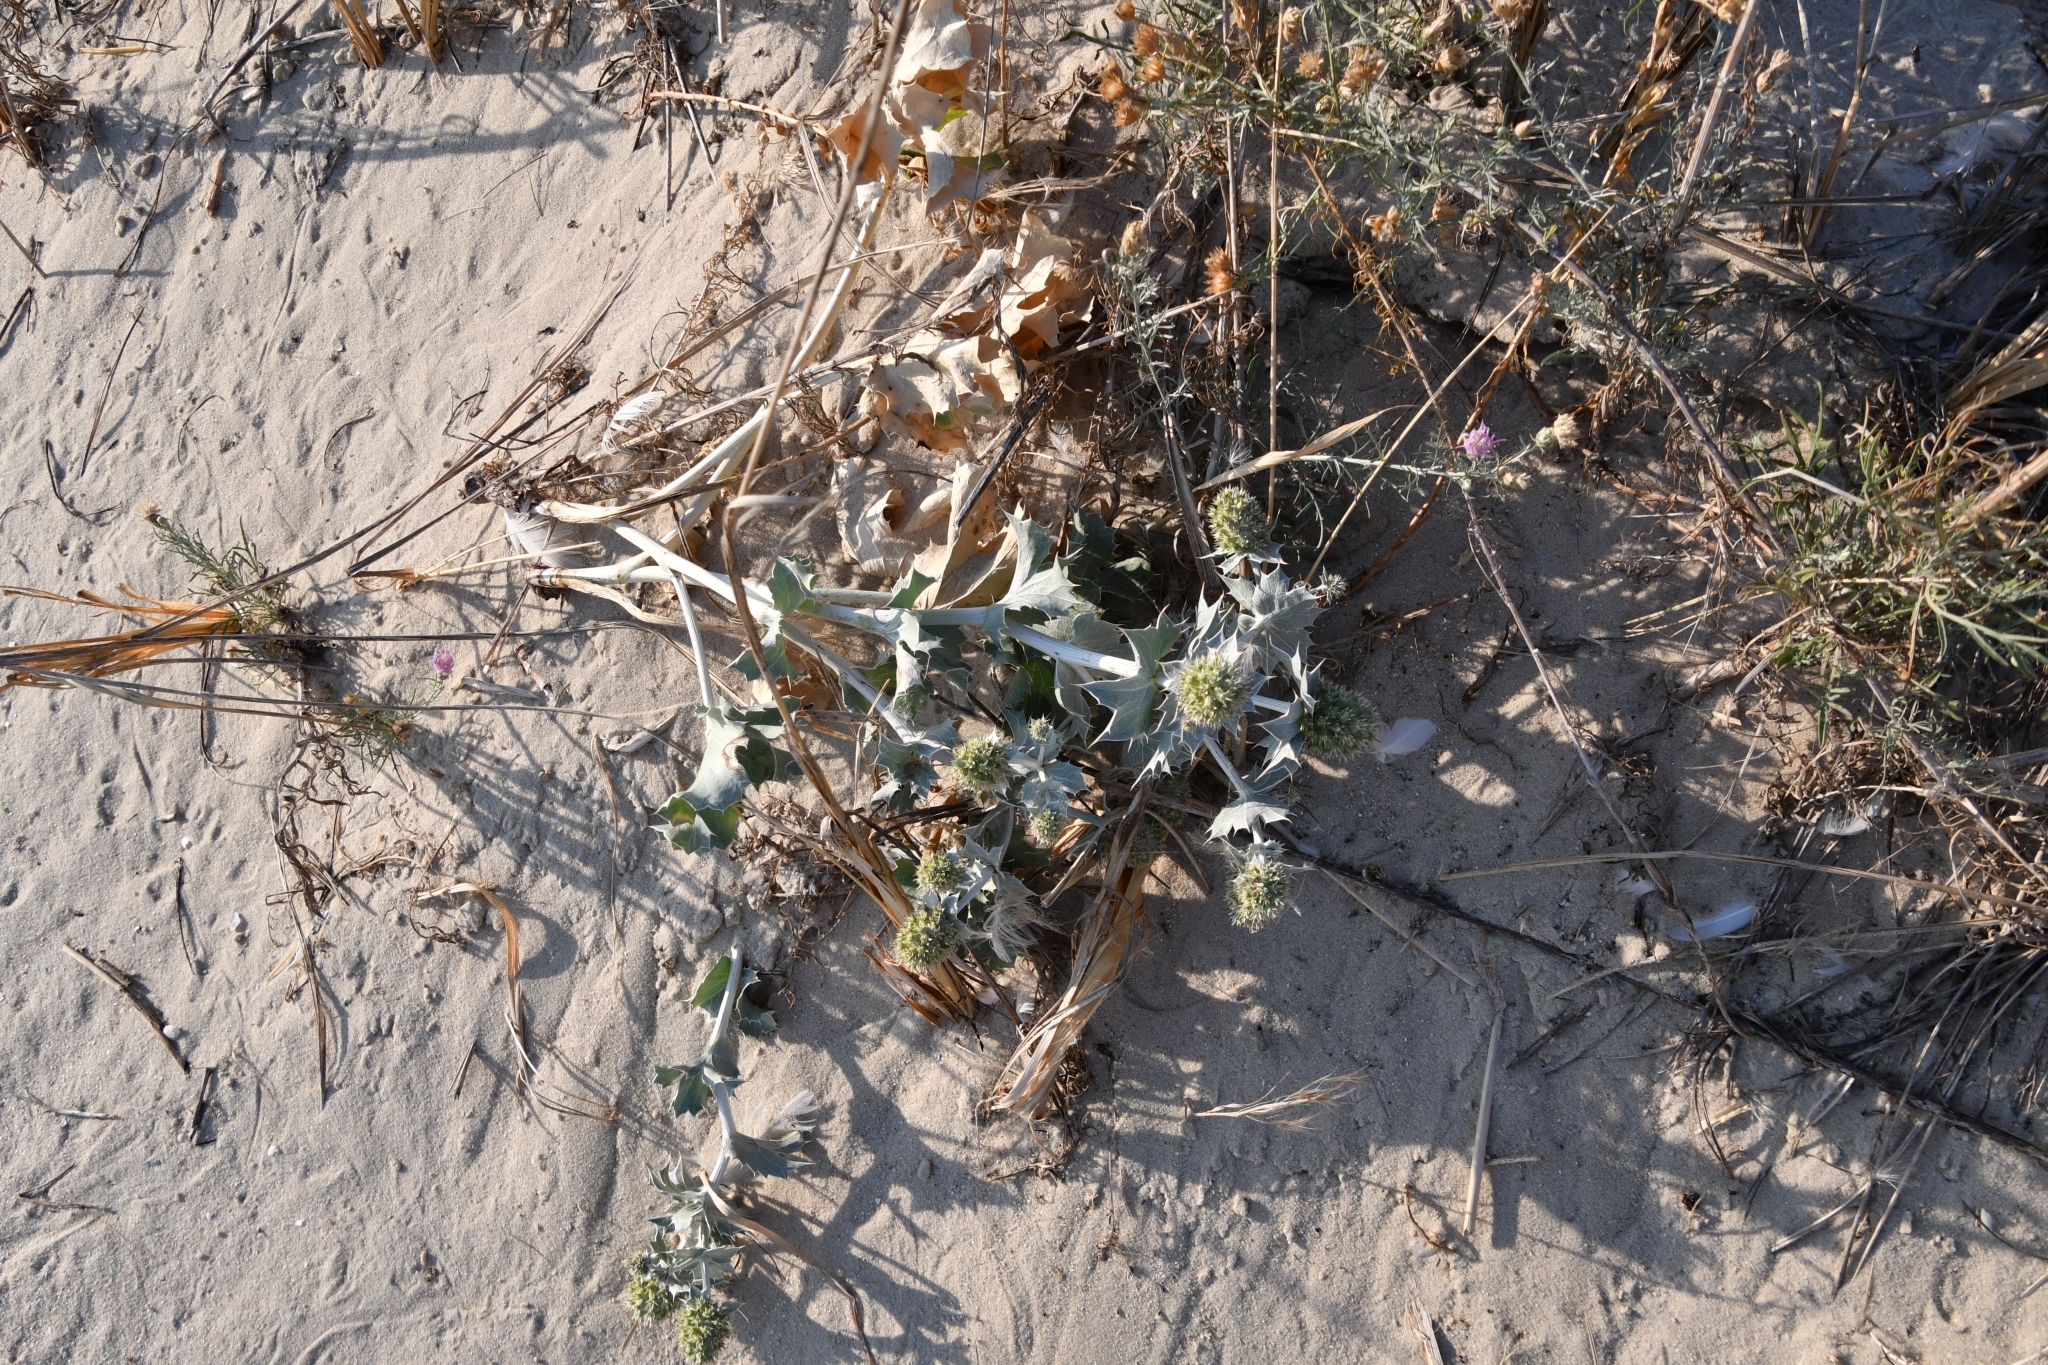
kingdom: Plantae
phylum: Tracheophyta
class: Magnoliopsida
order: Apiales
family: Apiaceae
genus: Eryngium
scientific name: Eryngium maritimum
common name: Sea-holly
